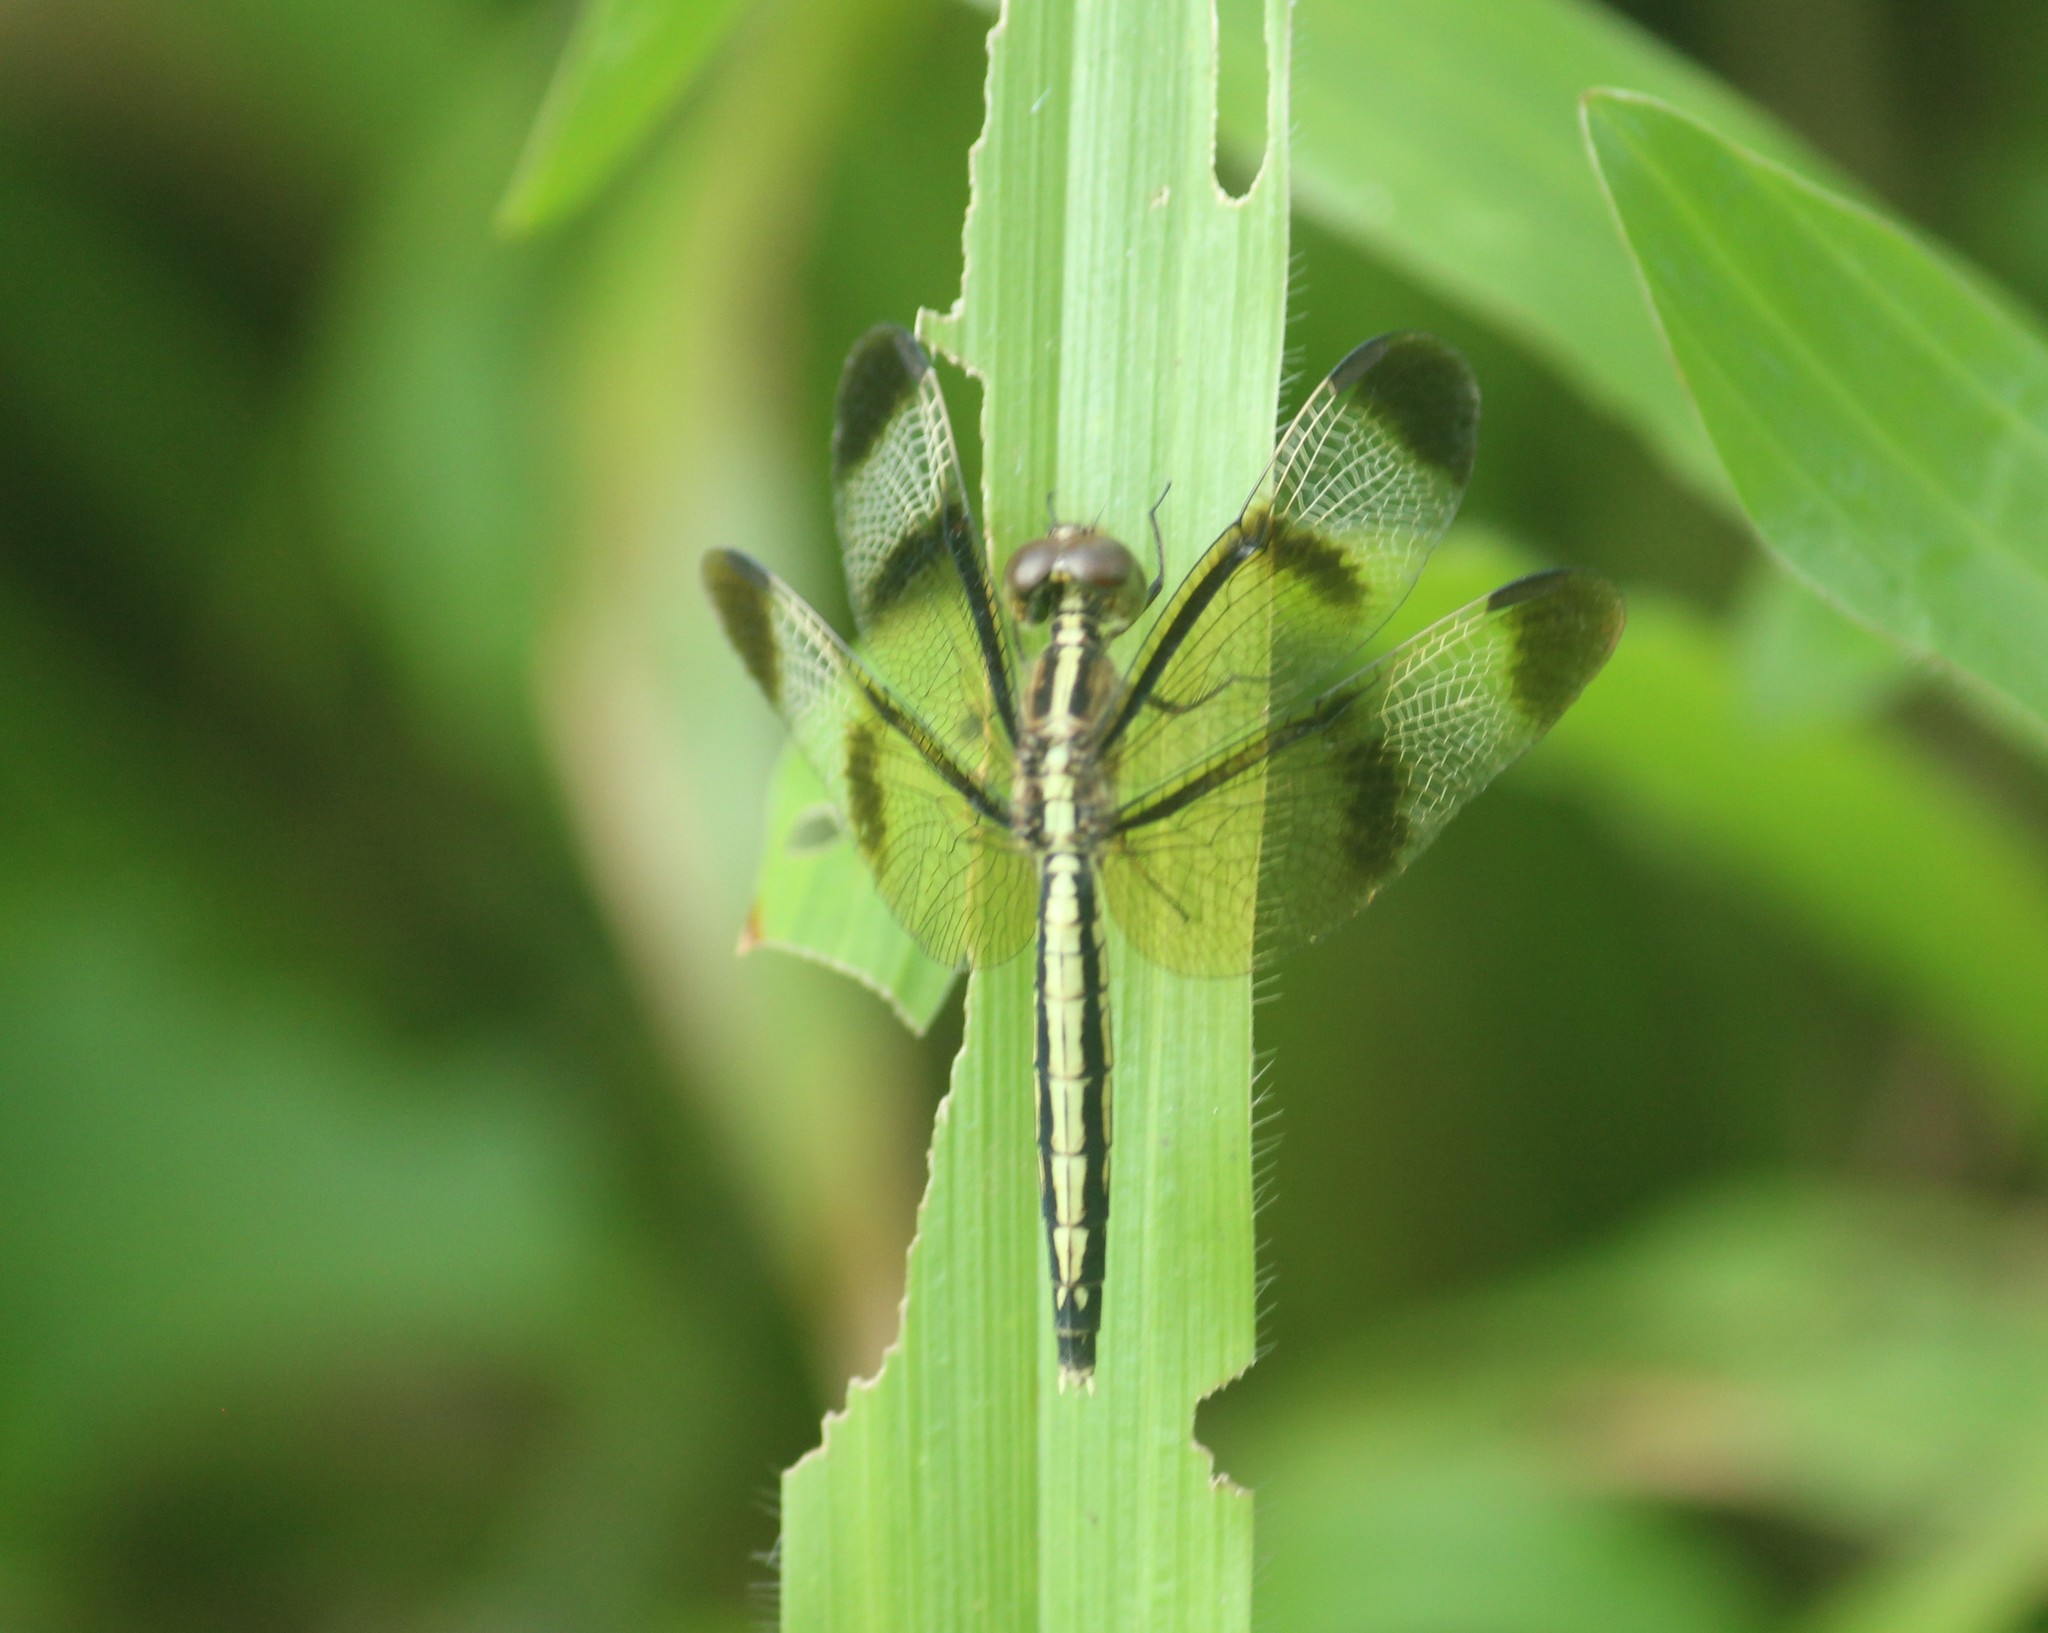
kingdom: Animalia
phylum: Arthropoda
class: Insecta
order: Odonata
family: Libellulidae
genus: Neurothemis
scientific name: Neurothemis tullia
